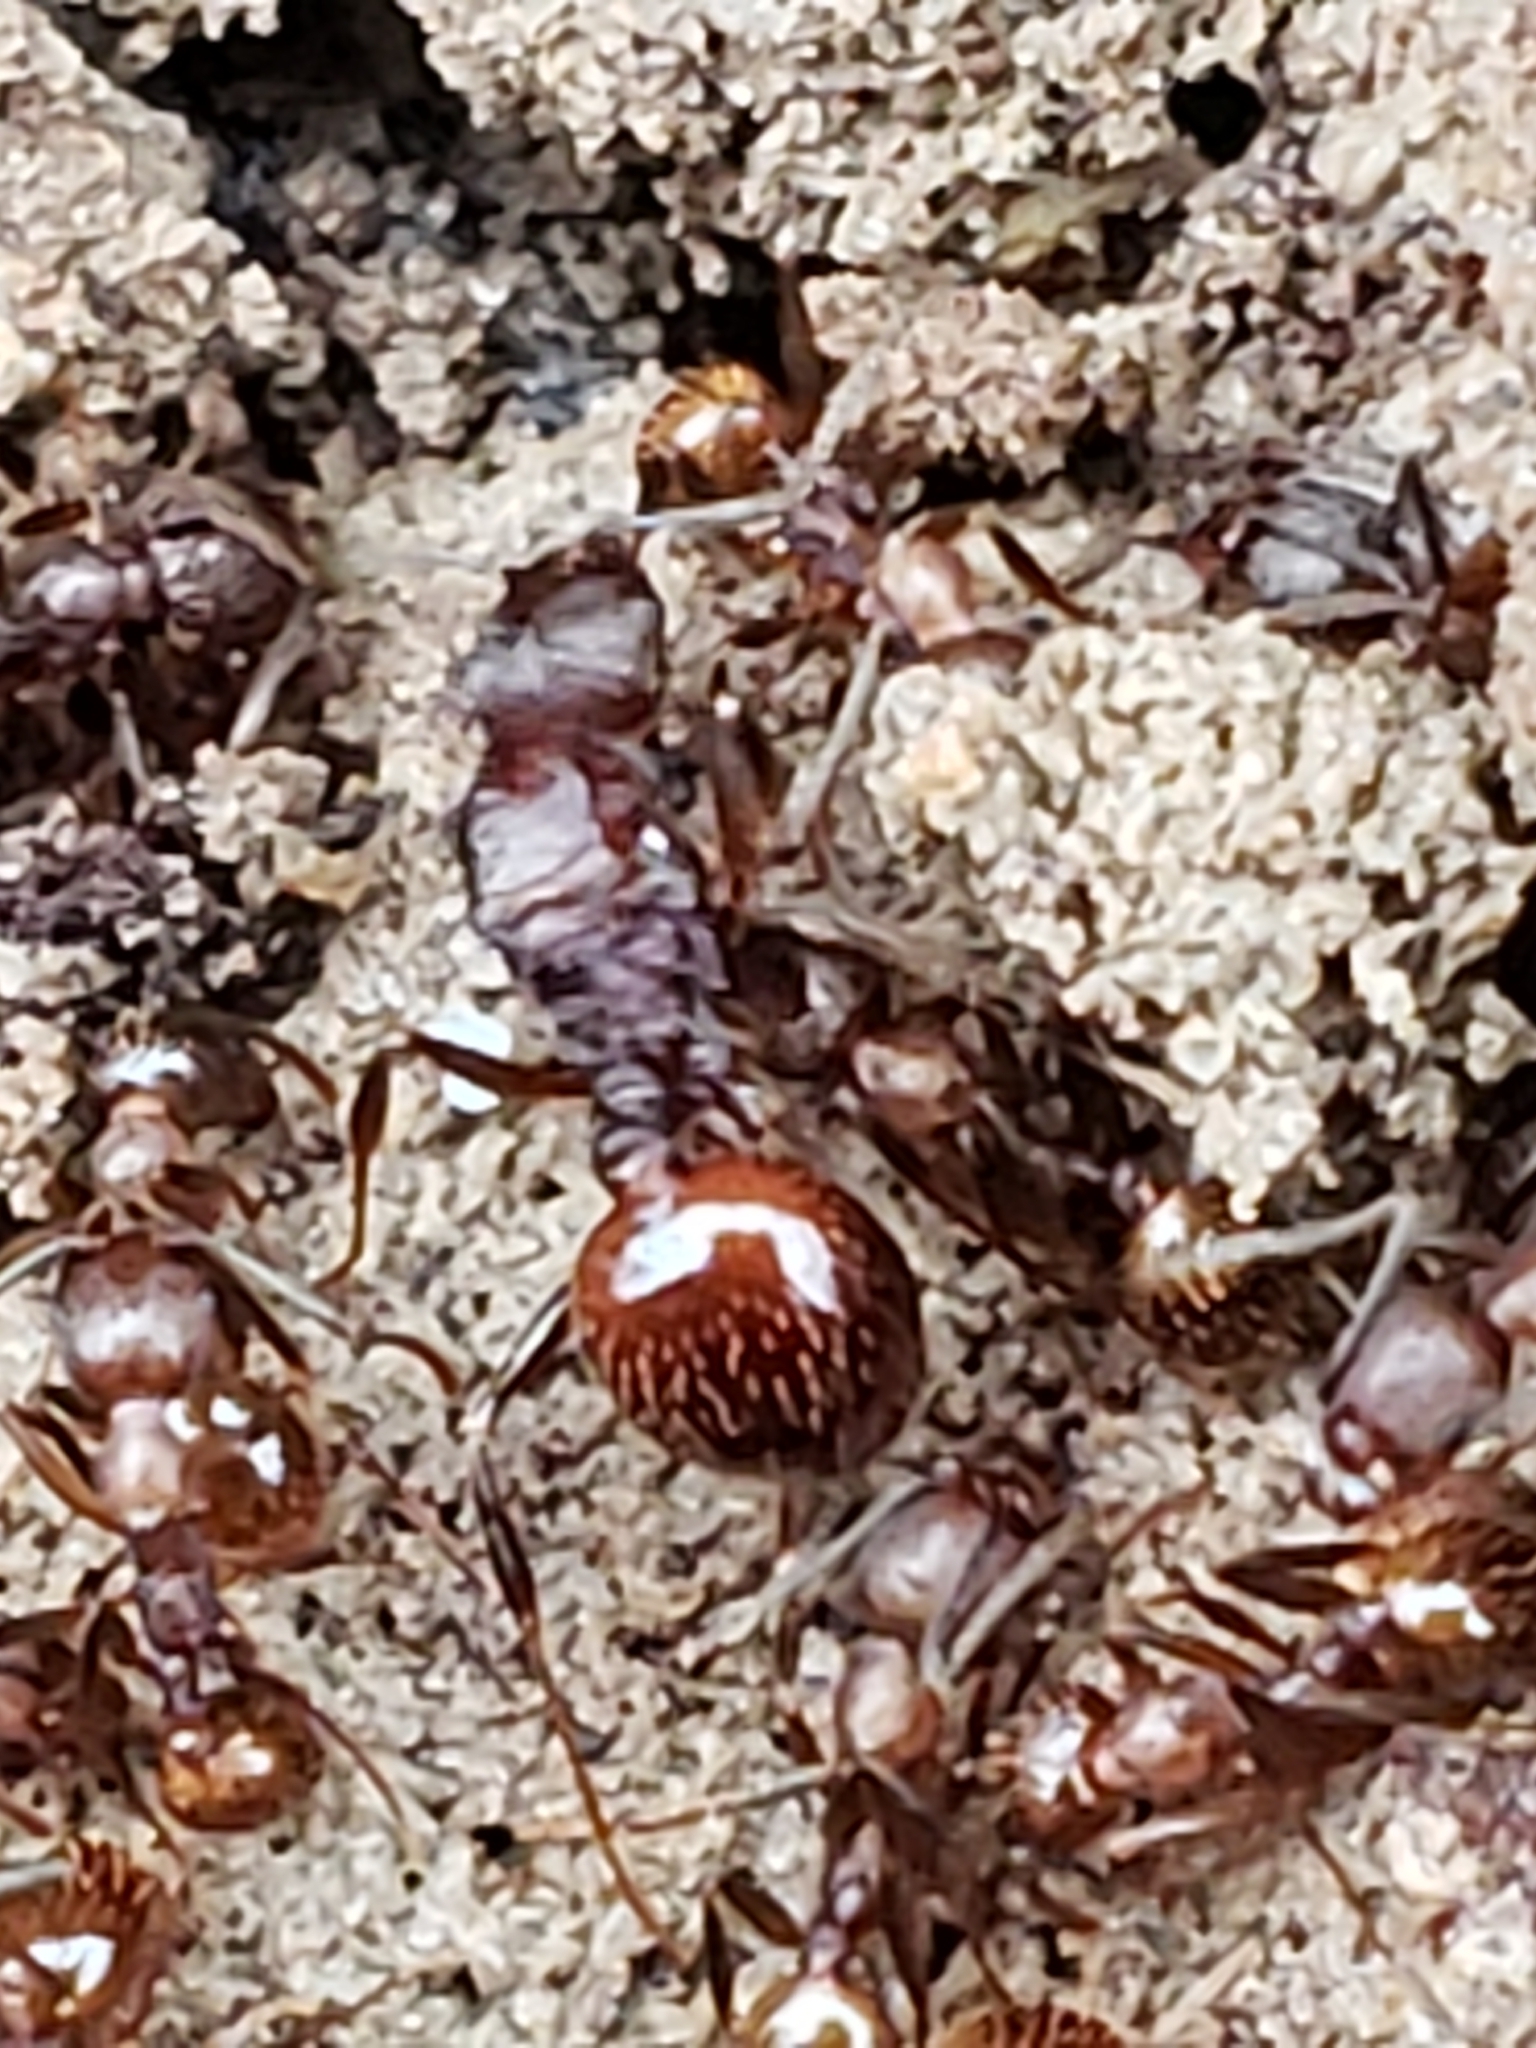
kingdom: Animalia
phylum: Arthropoda
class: Insecta
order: Hymenoptera
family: Formicidae
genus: Aphaenogaster
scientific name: Aphaenogaster fulva
